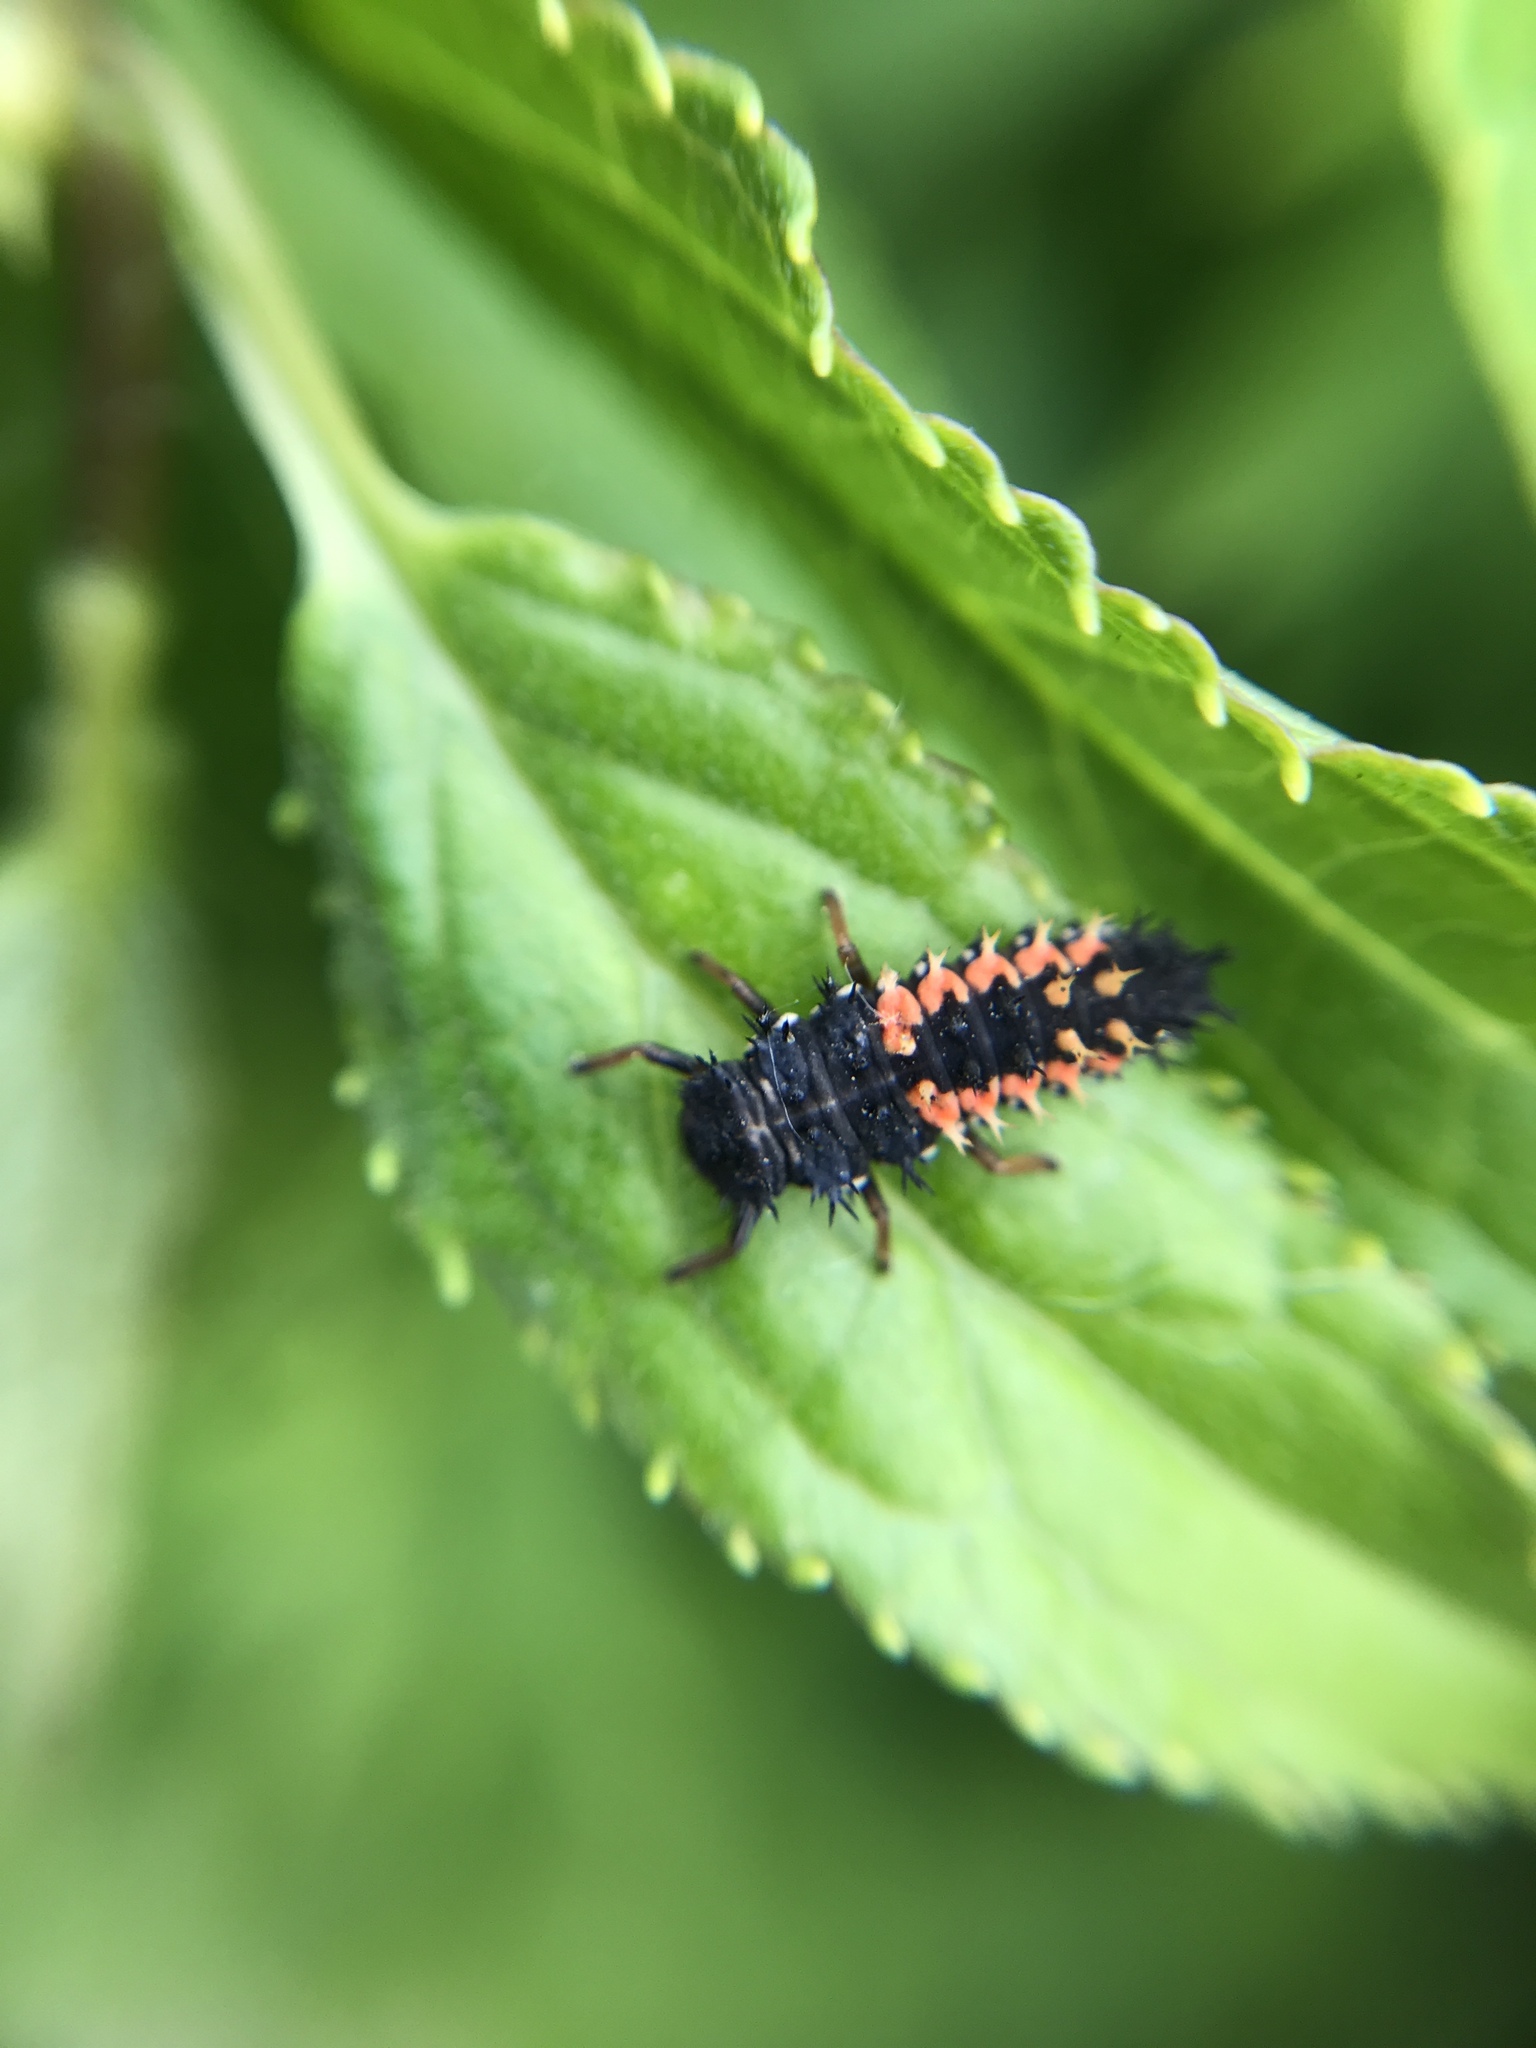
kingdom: Animalia
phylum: Arthropoda
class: Insecta
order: Coleoptera
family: Coccinellidae
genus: Harmonia
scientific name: Harmonia axyridis
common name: Harlequin ladybird
